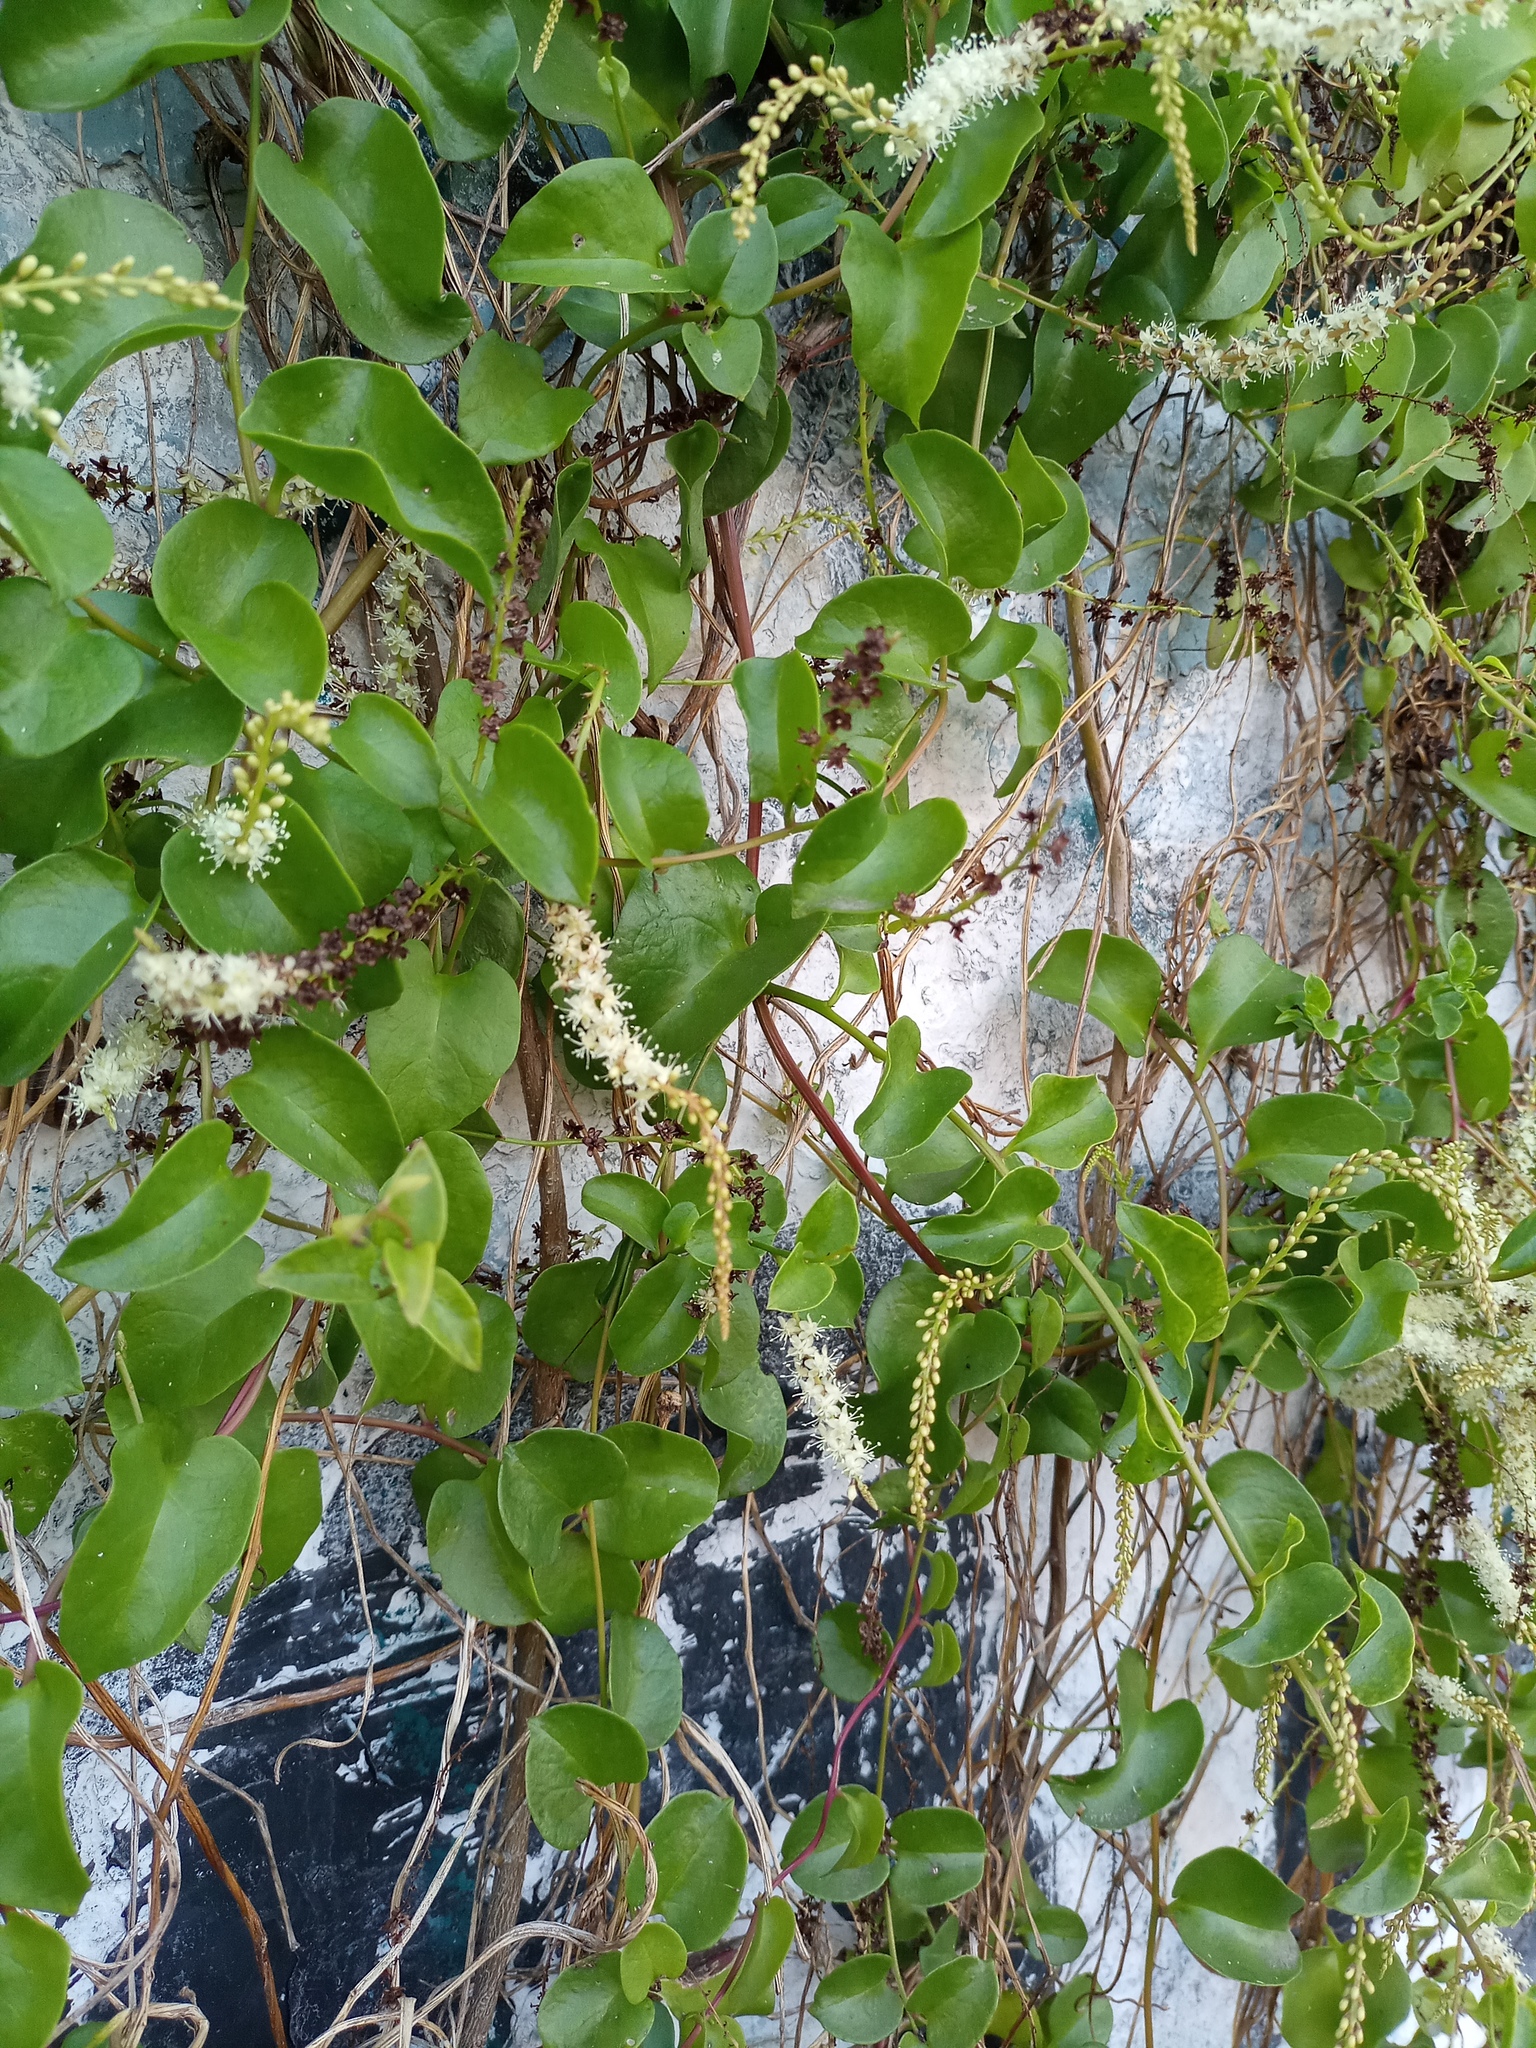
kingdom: Plantae
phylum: Tracheophyta
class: Magnoliopsida
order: Caryophyllales
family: Basellaceae
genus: Anredera
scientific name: Anredera cordifolia
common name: Heartleaf madeiravine
